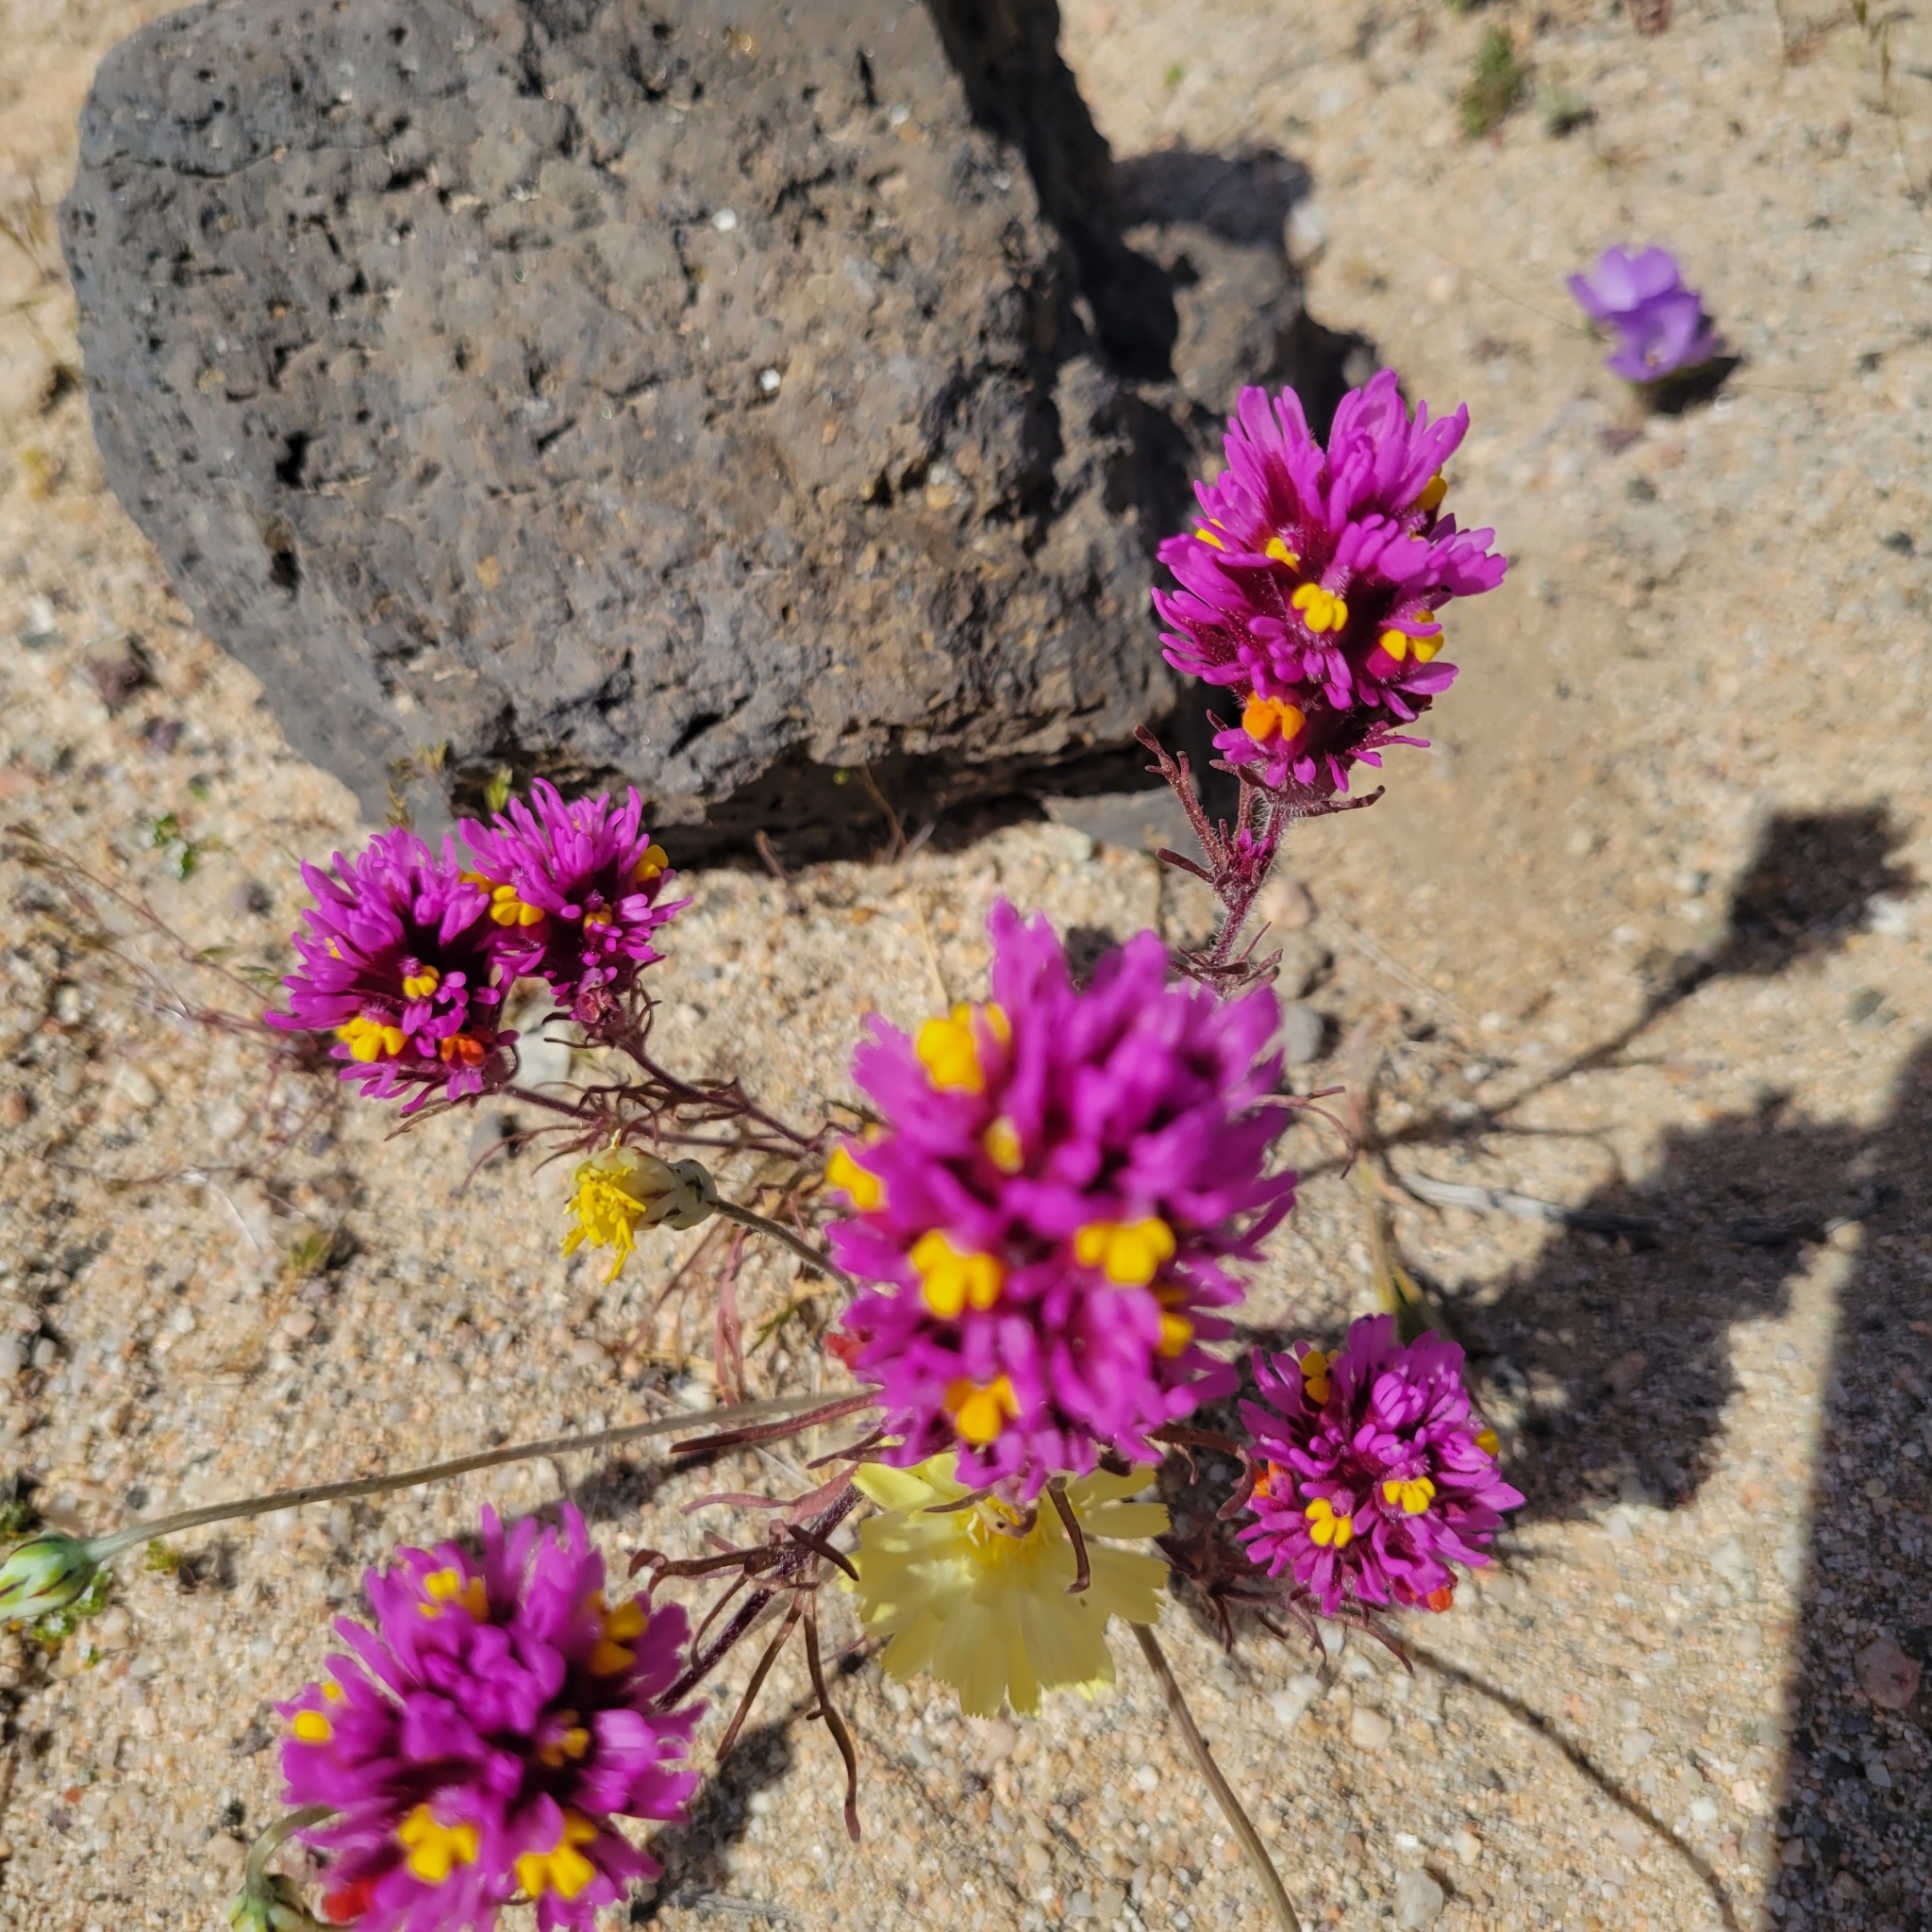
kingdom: Plantae
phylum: Tracheophyta
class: Magnoliopsida
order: Lamiales
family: Orobanchaceae
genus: Castilleja
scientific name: Castilleja exserta
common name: Purple owl-clover
